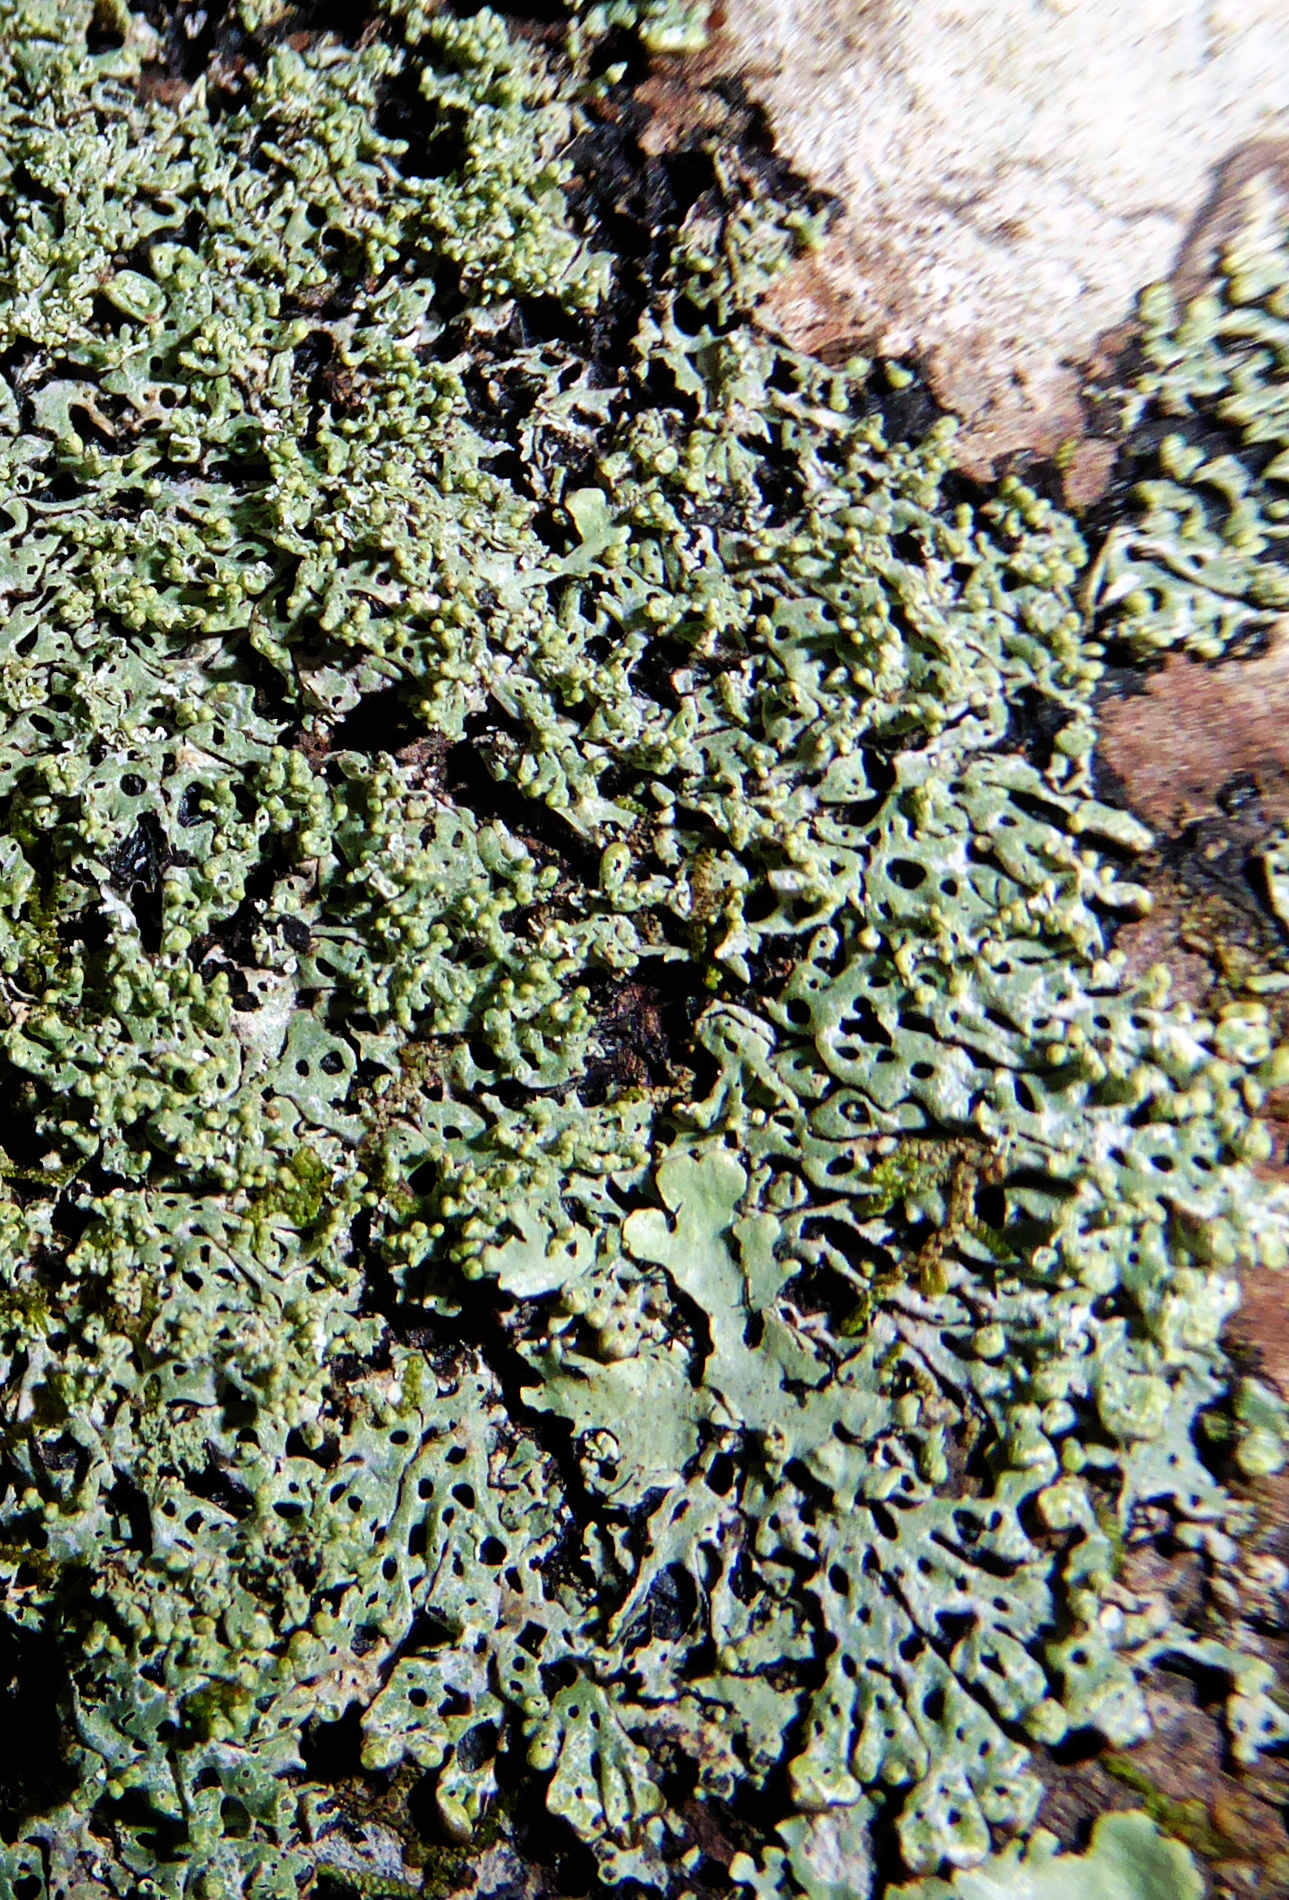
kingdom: Fungi
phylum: Ascomycota
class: Lecanoromycetes
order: Lecanorales
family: Parmeliaceae
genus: Menegazzia
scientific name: Menegazzia nothofagi
